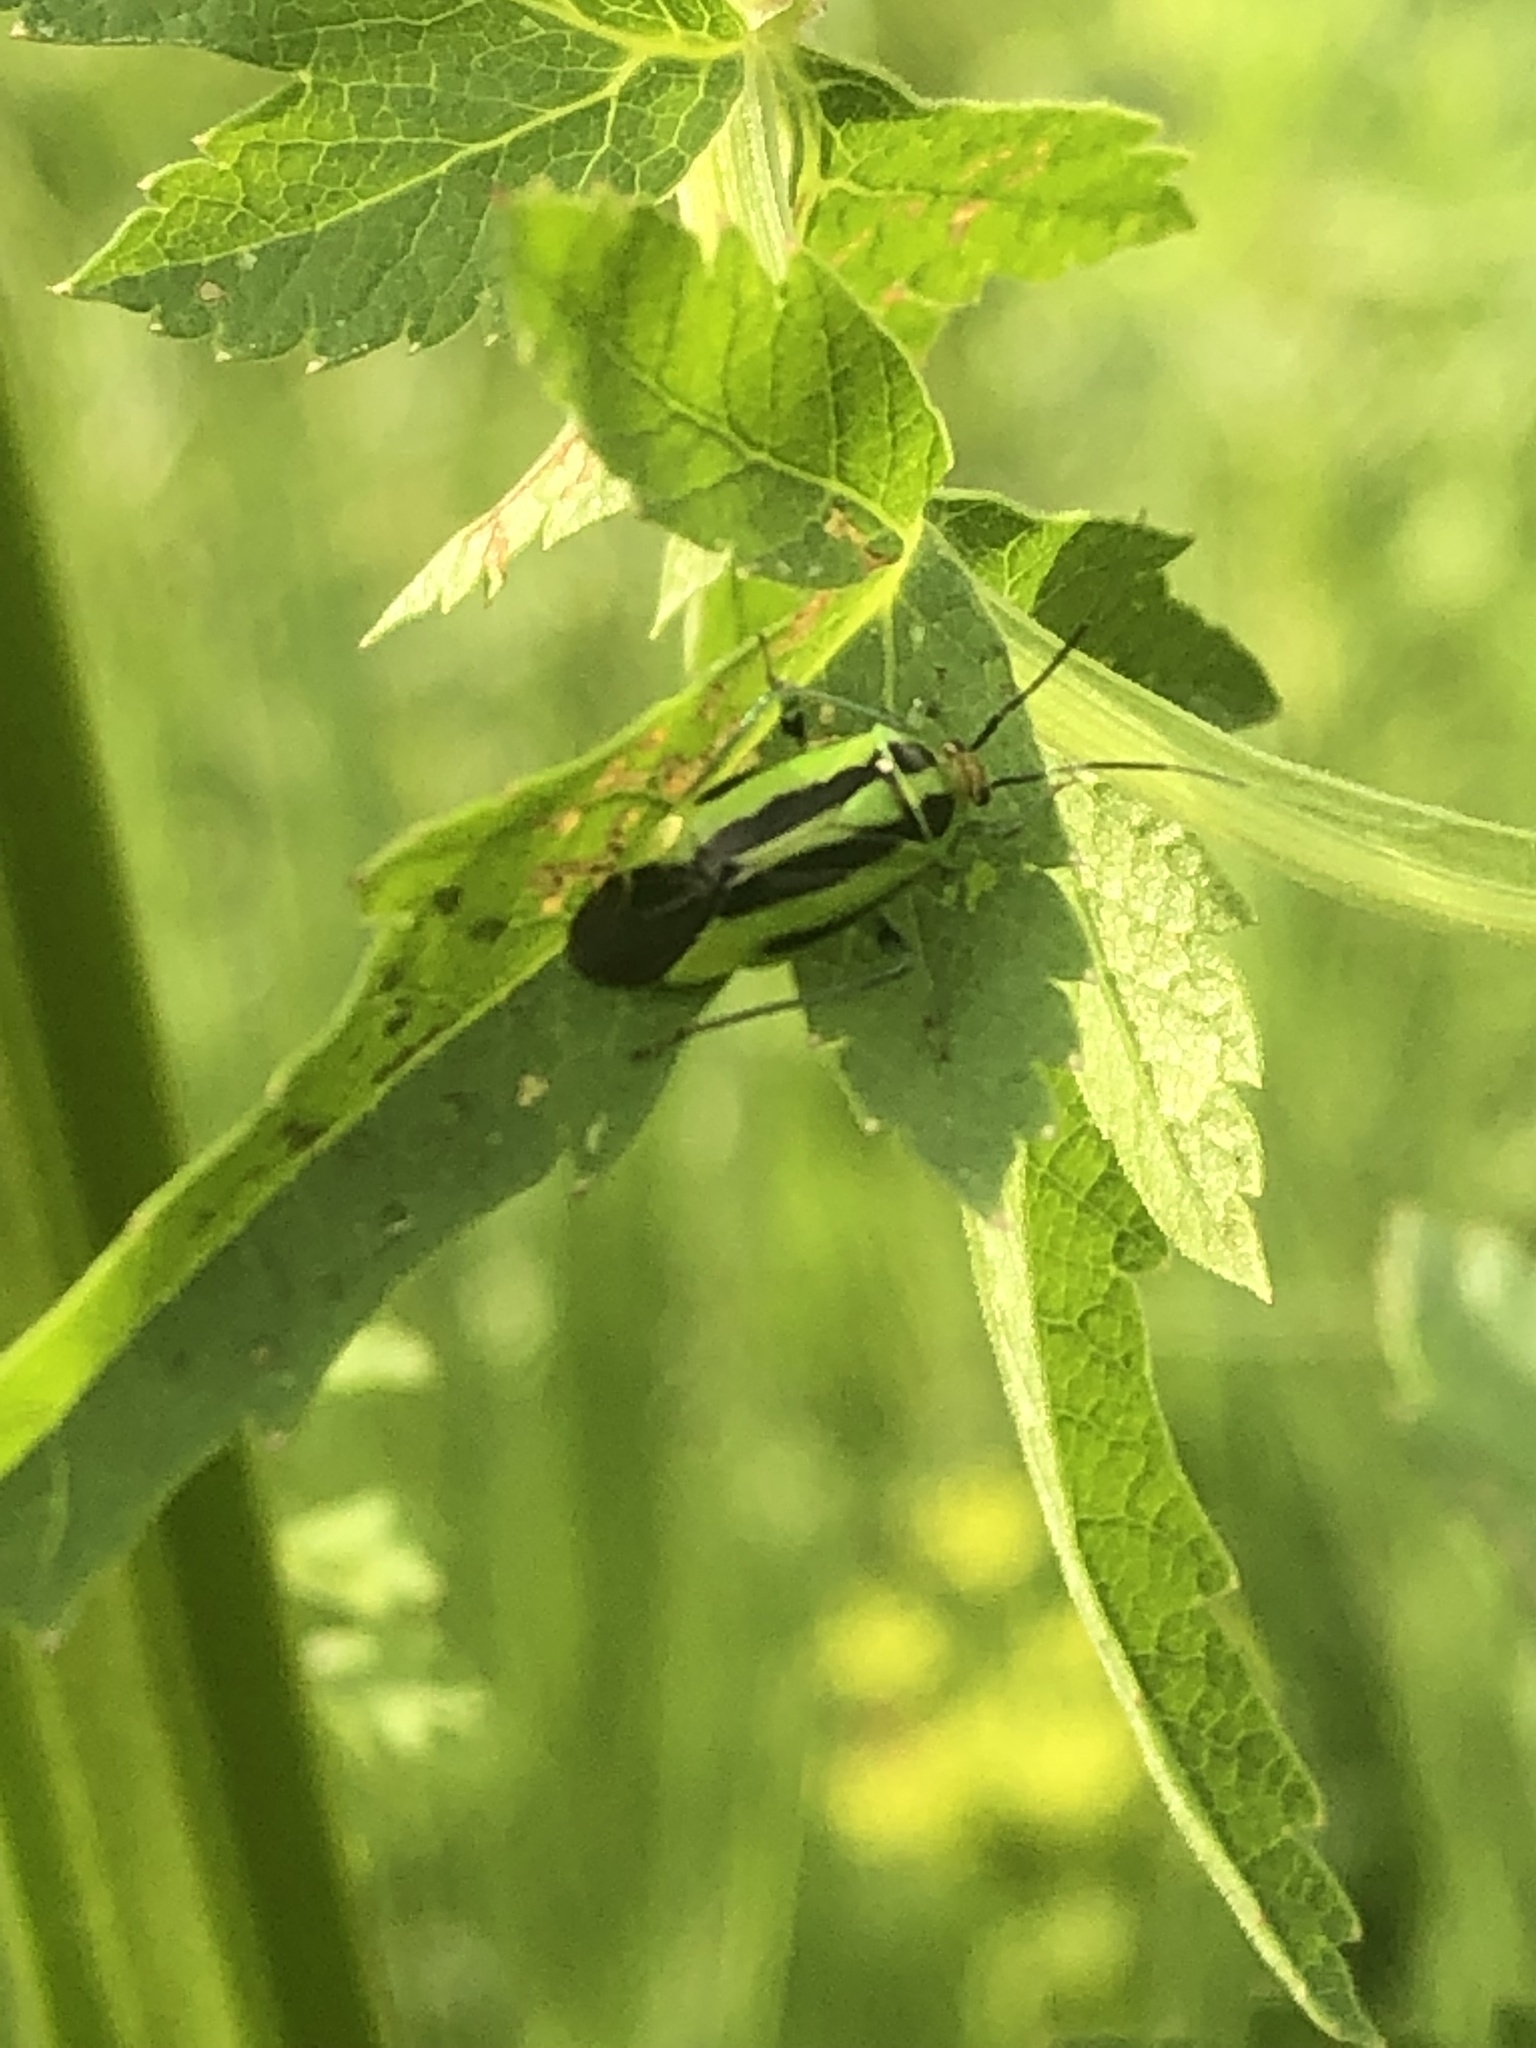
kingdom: Animalia
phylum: Arthropoda
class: Insecta
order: Hemiptera
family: Miridae
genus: Poecilocapsus
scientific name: Poecilocapsus lineatus
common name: Four-lined plant bug
